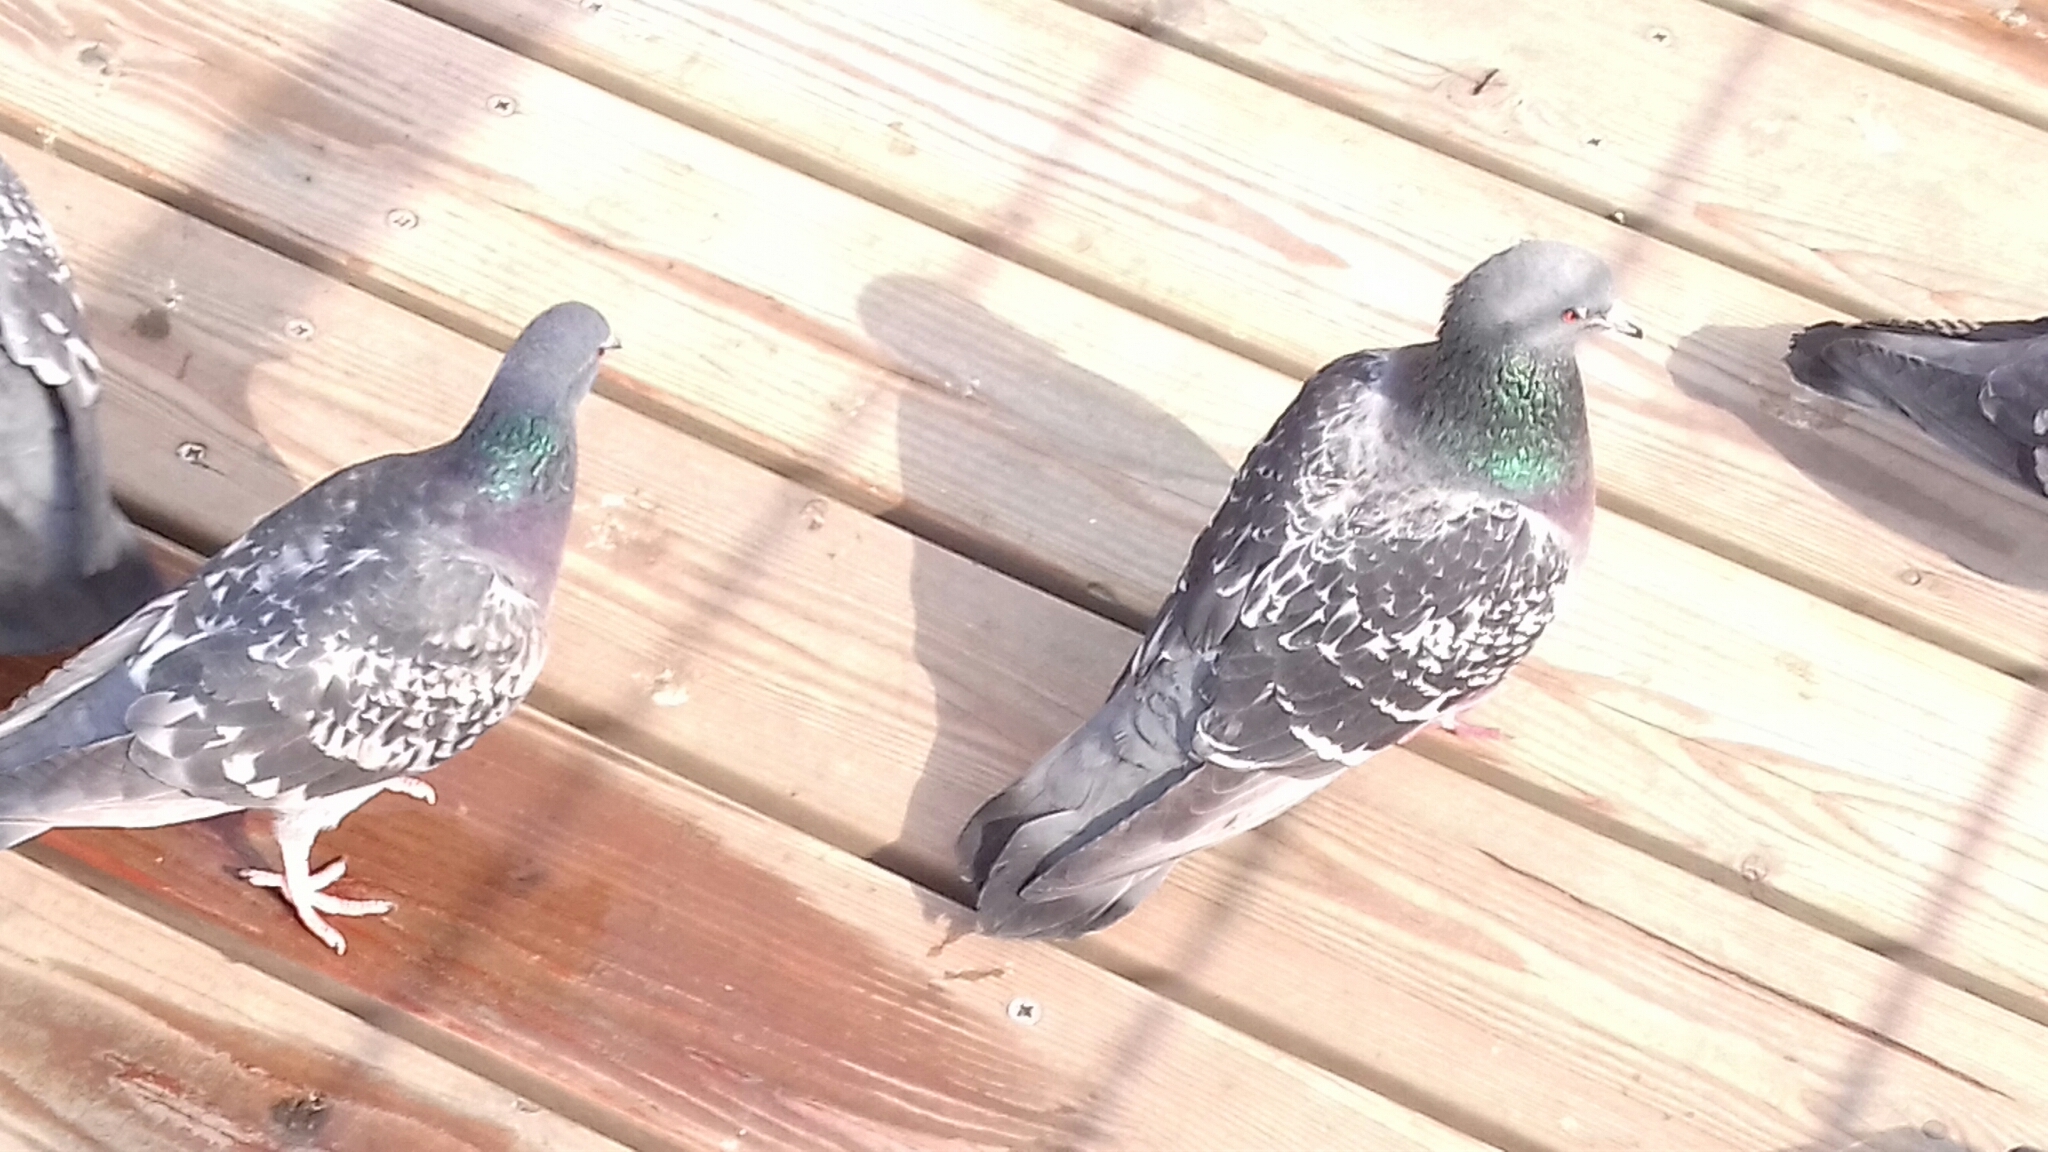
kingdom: Animalia
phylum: Chordata
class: Aves
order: Columbiformes
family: Columbidae
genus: Columba
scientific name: Columba livia
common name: Rock pigeon
